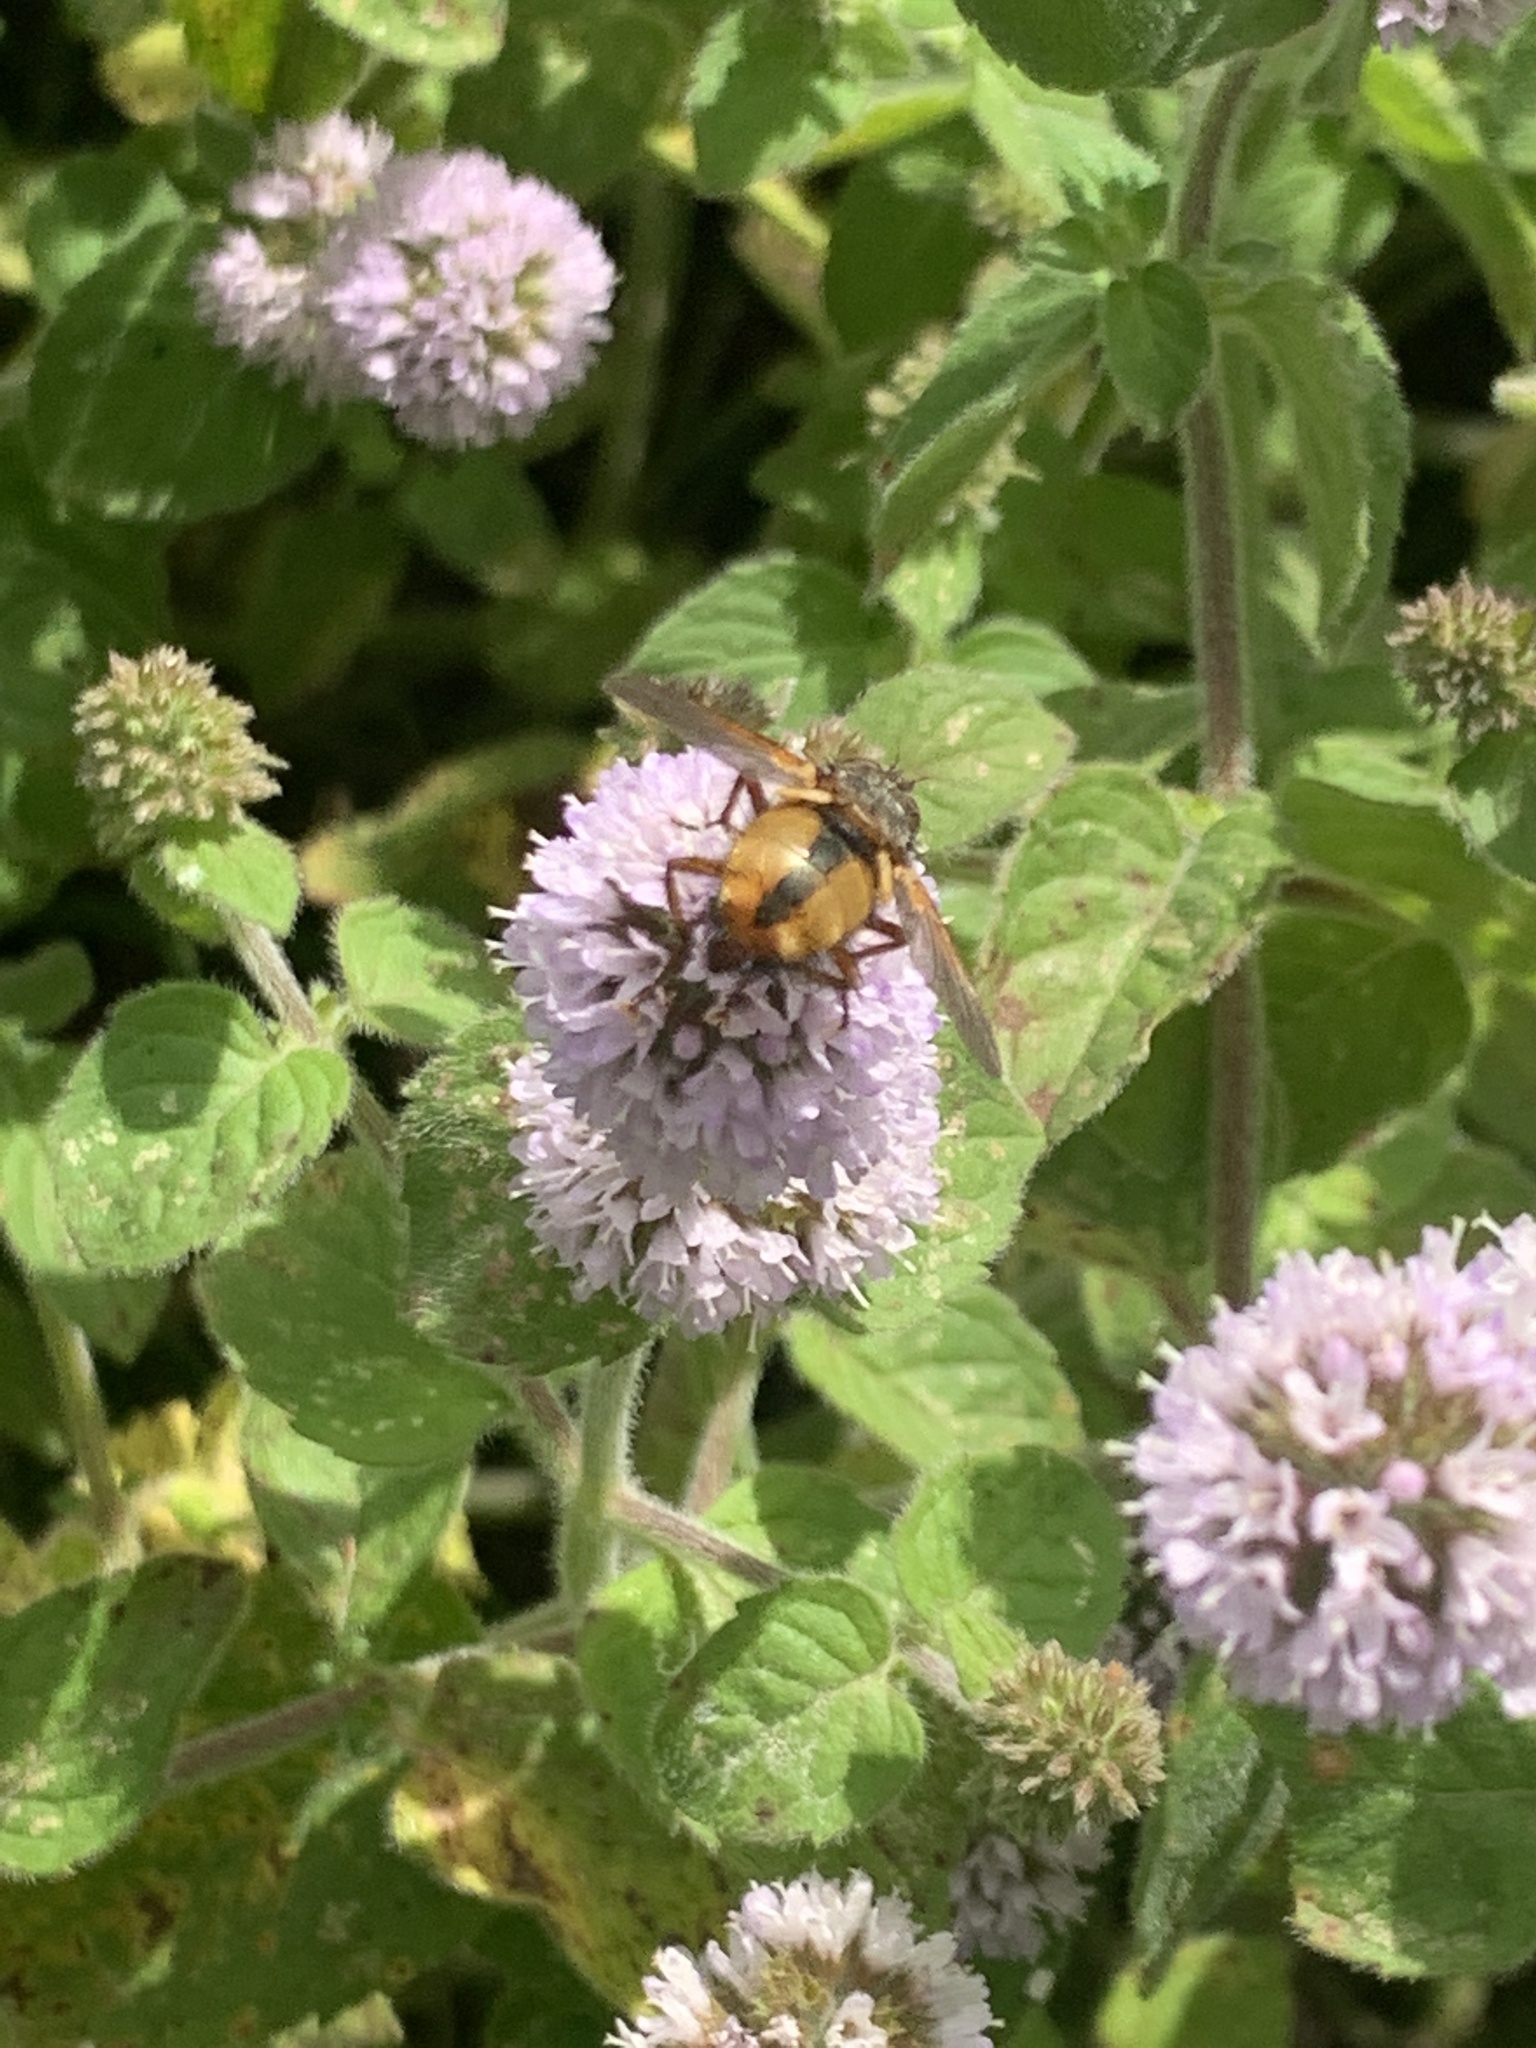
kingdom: Animalia
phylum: Arthropoda
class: Insecta
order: Diptera
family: Tachinidae
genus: Tachina
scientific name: Tachina fera
